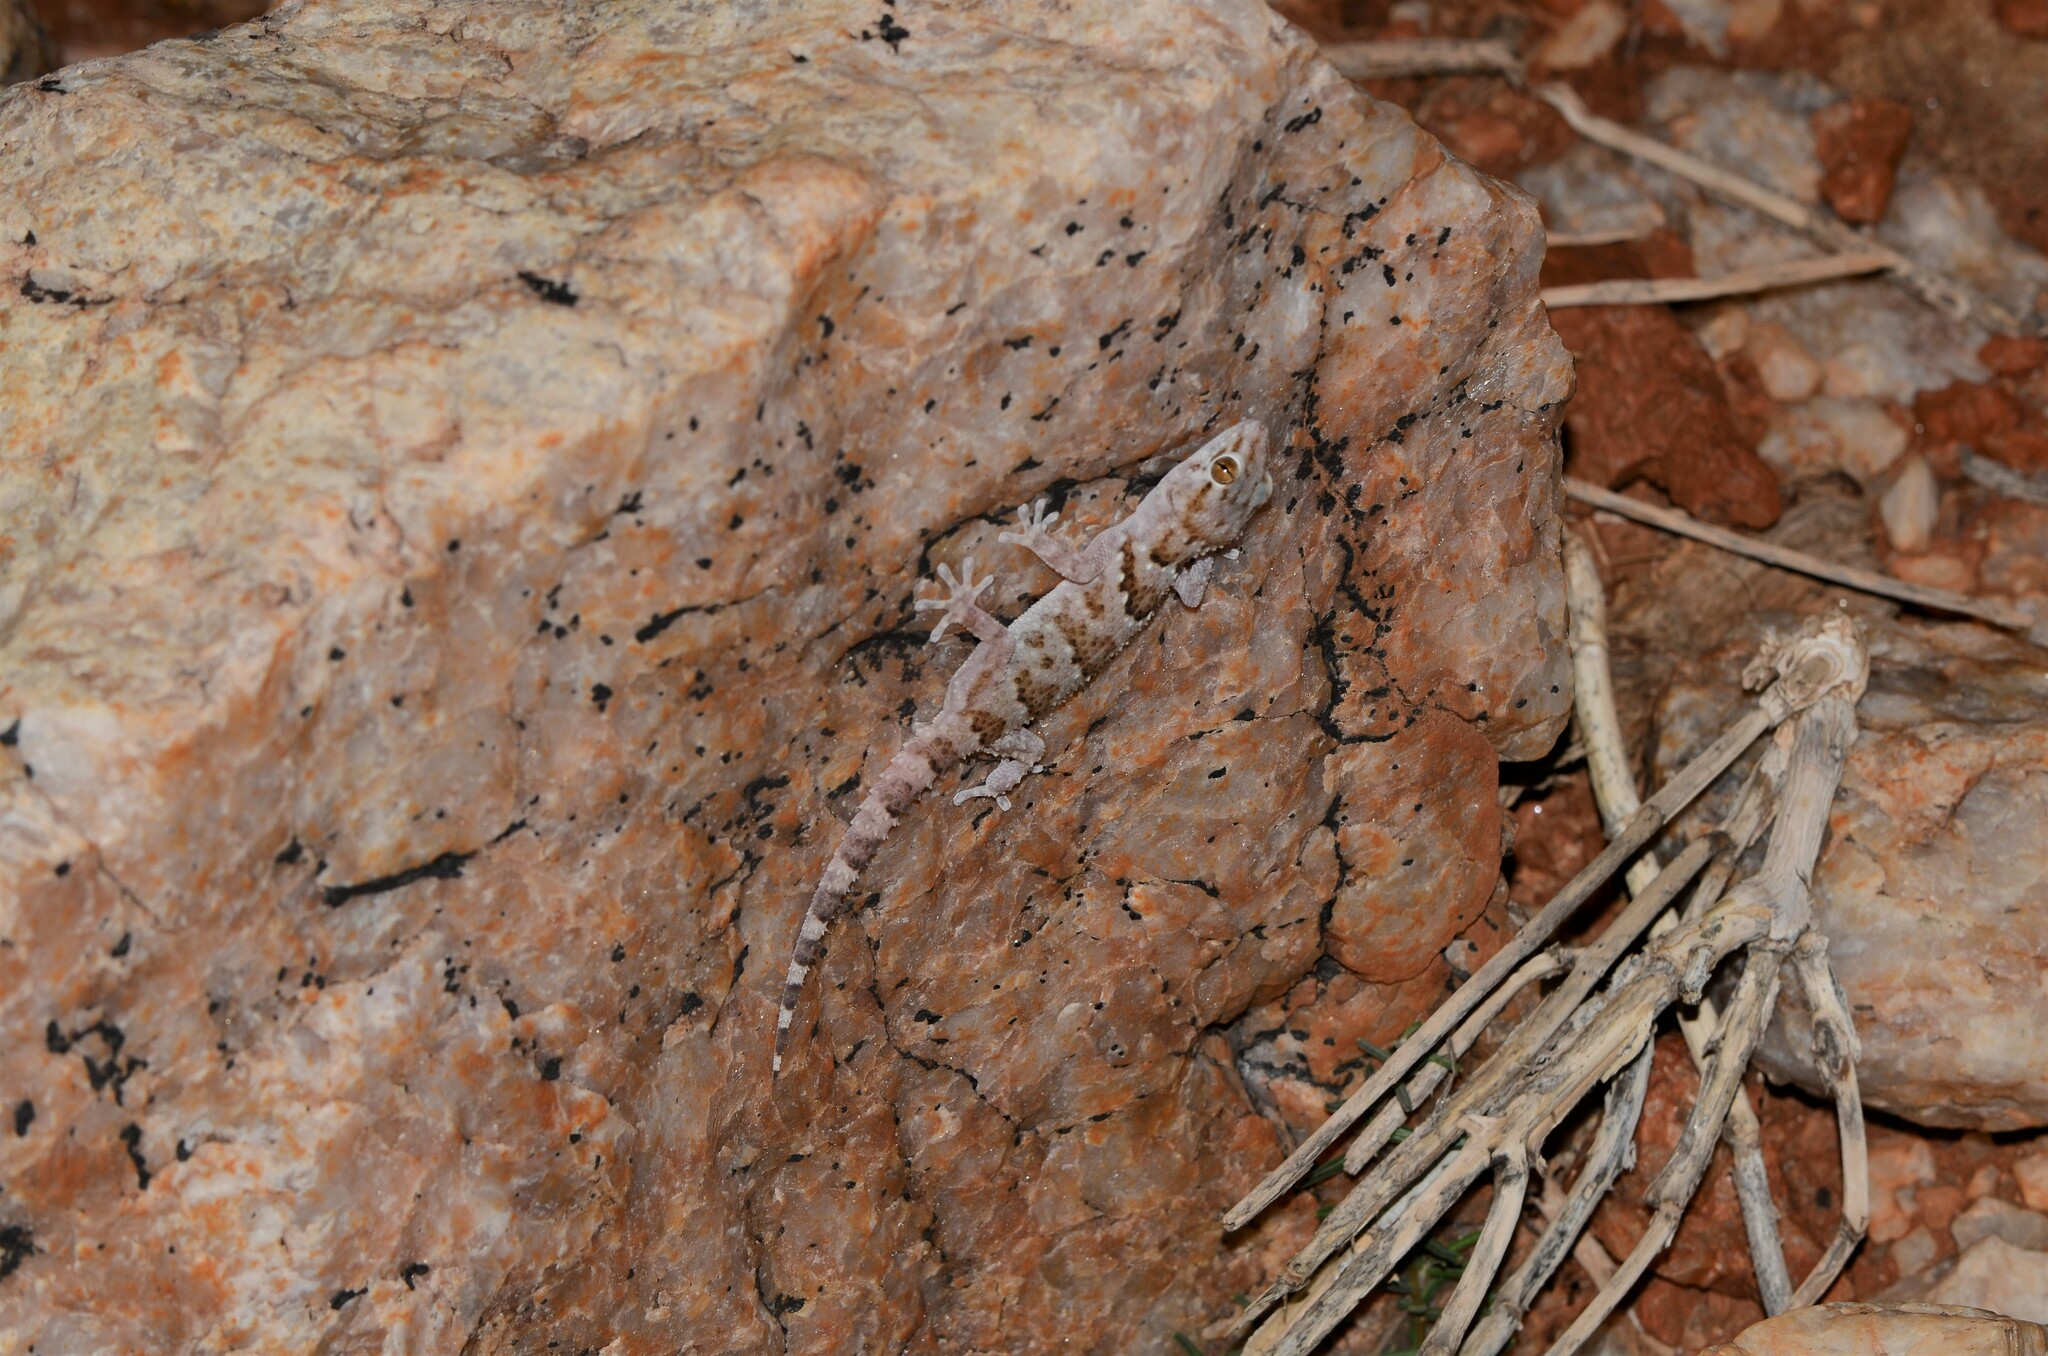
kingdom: Animalia
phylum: Chordata
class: Squamata
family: Gekkonidae
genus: Chondrodactylus
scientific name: Chondrodactylus laevigatus
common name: Fischer's thick-toed gecko
